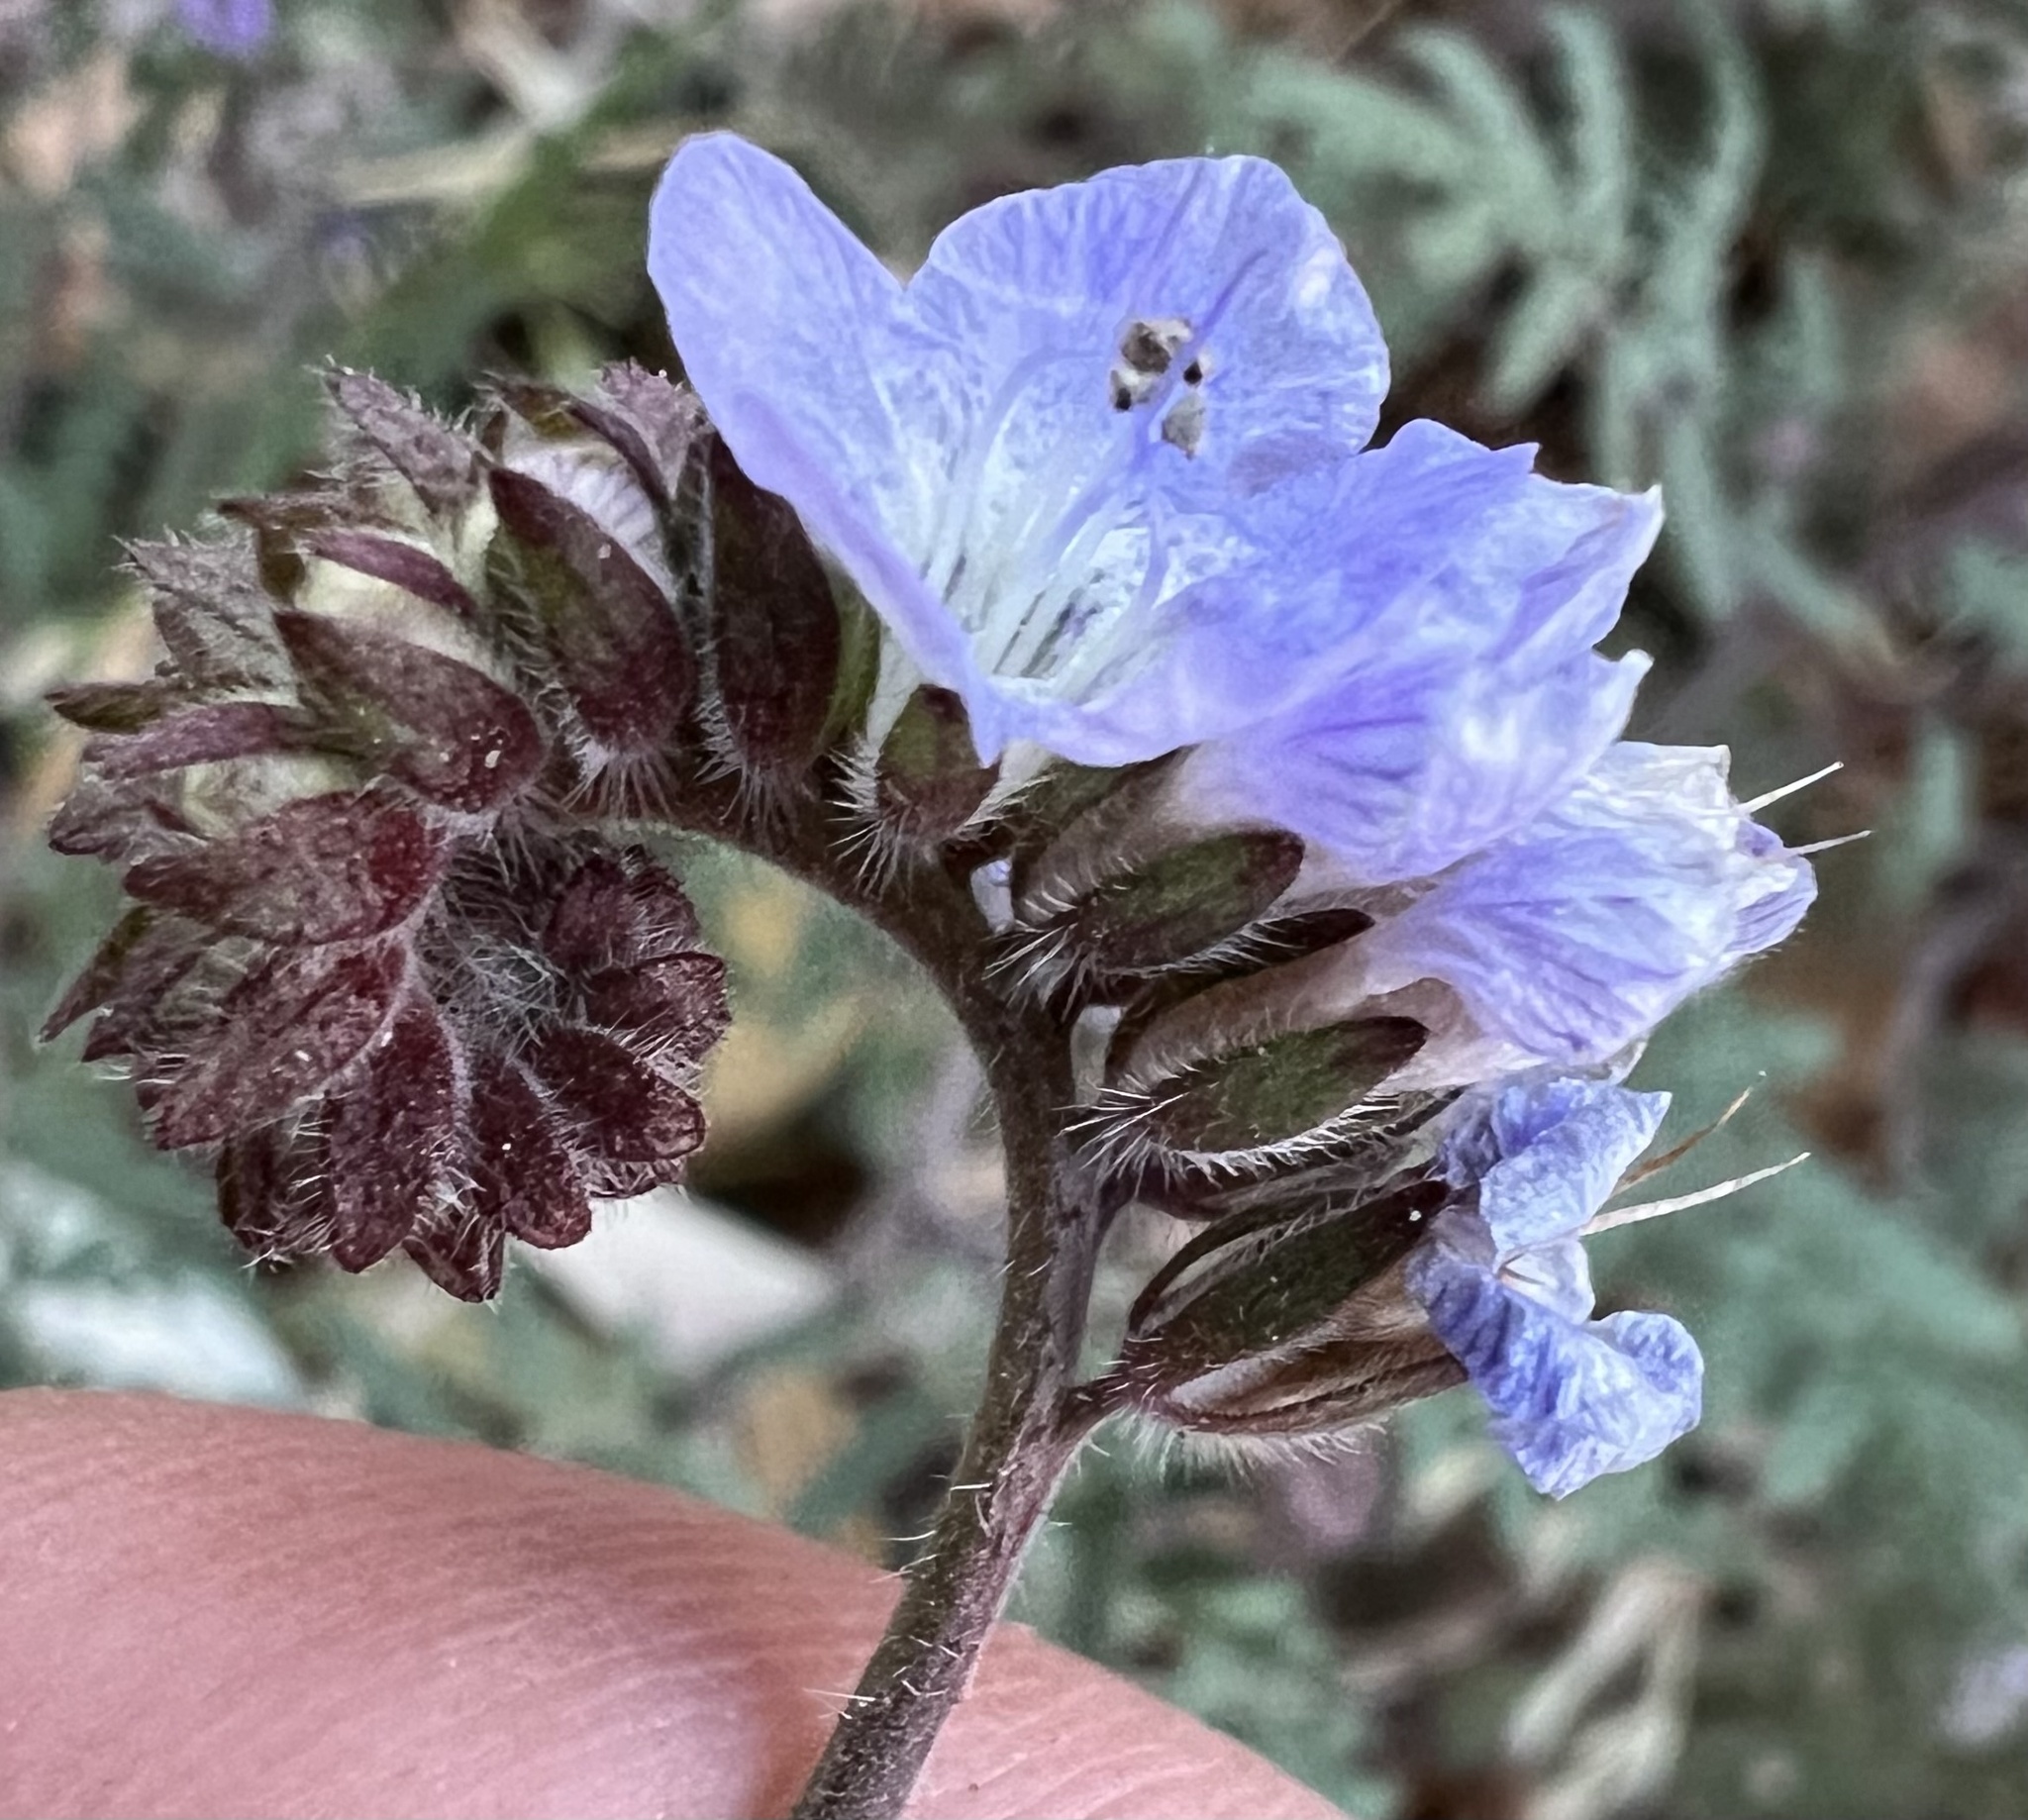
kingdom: Plantae
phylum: Tracheophyta
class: Magnoliopsida
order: Boraginales
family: Hydrophyllaceae
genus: Phacelia
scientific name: Phacelia distans
